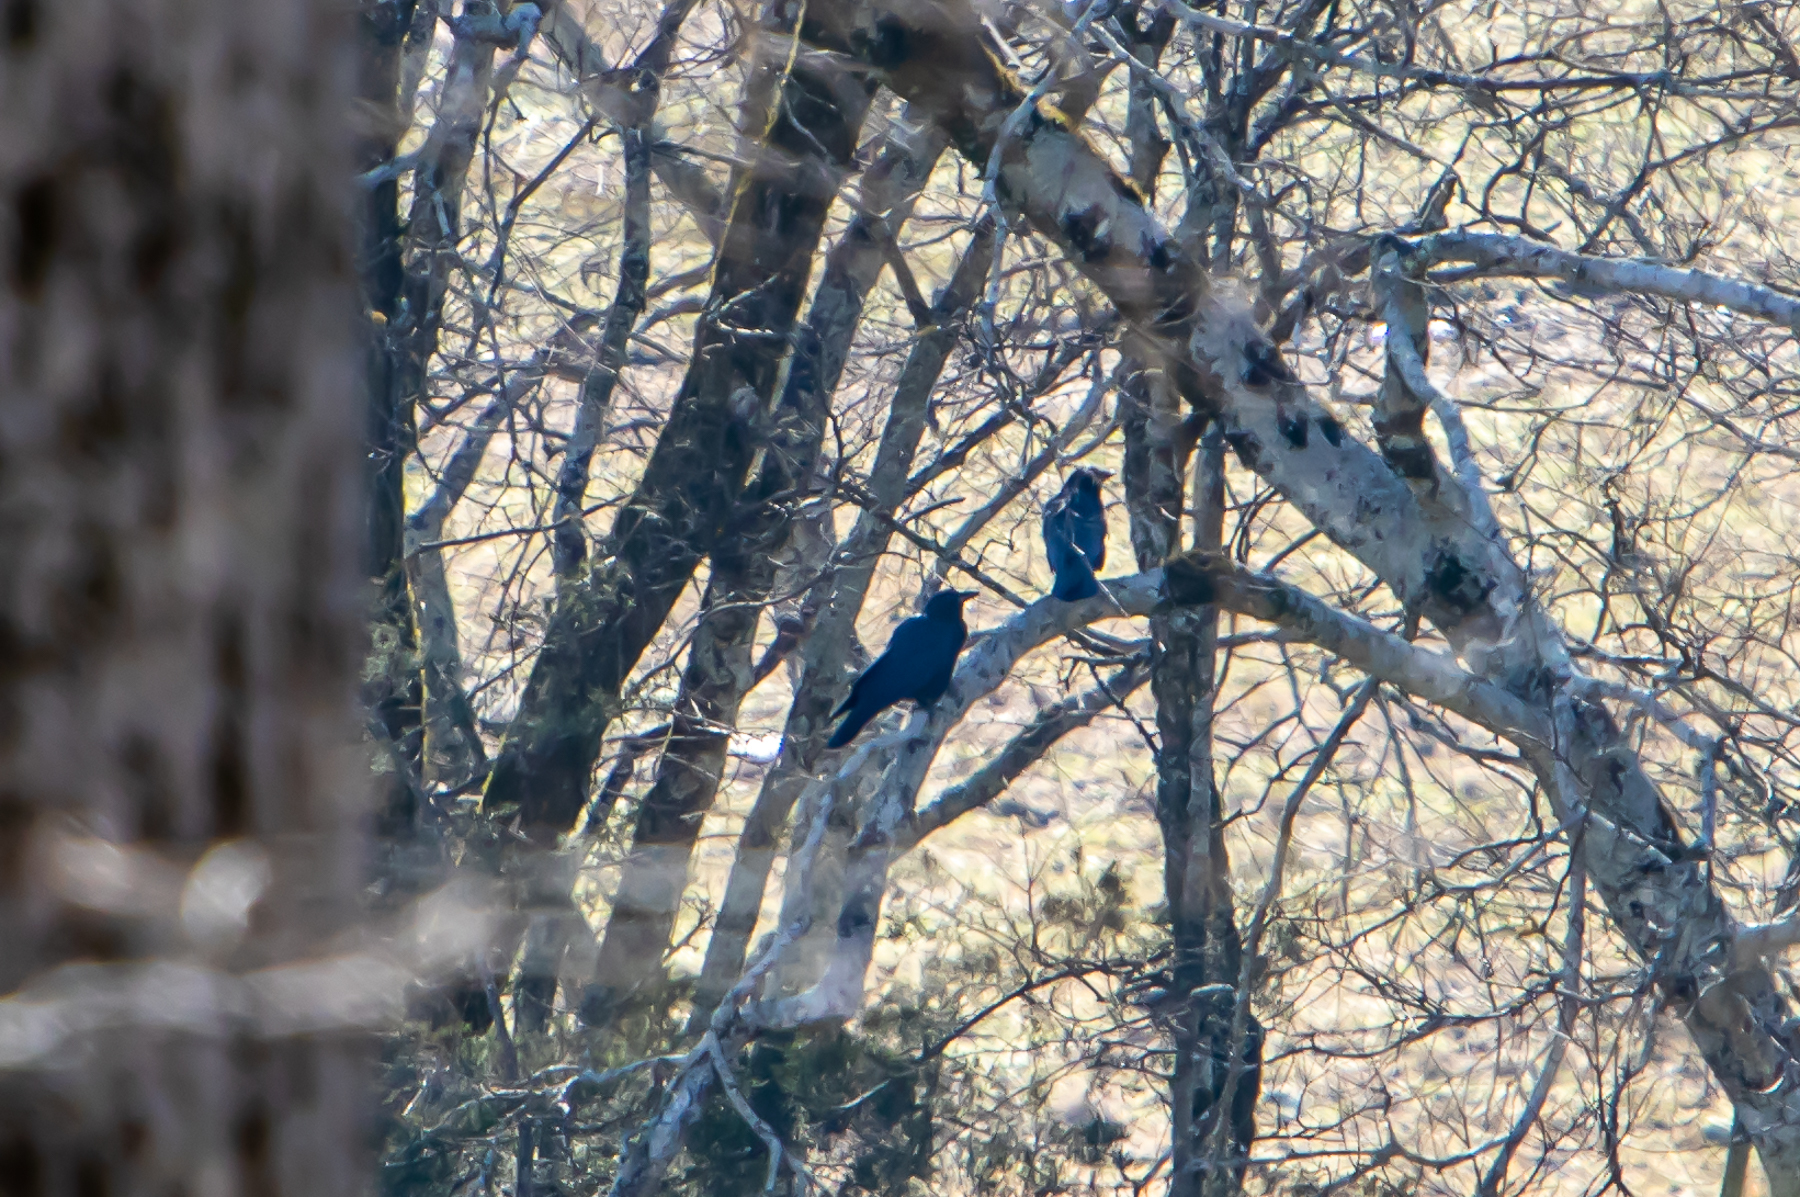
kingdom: Animalia
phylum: Chordata
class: Aves
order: Passeriformes
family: Corvidae
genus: Corvus
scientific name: Corvus brachyrhynchos
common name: American crow
